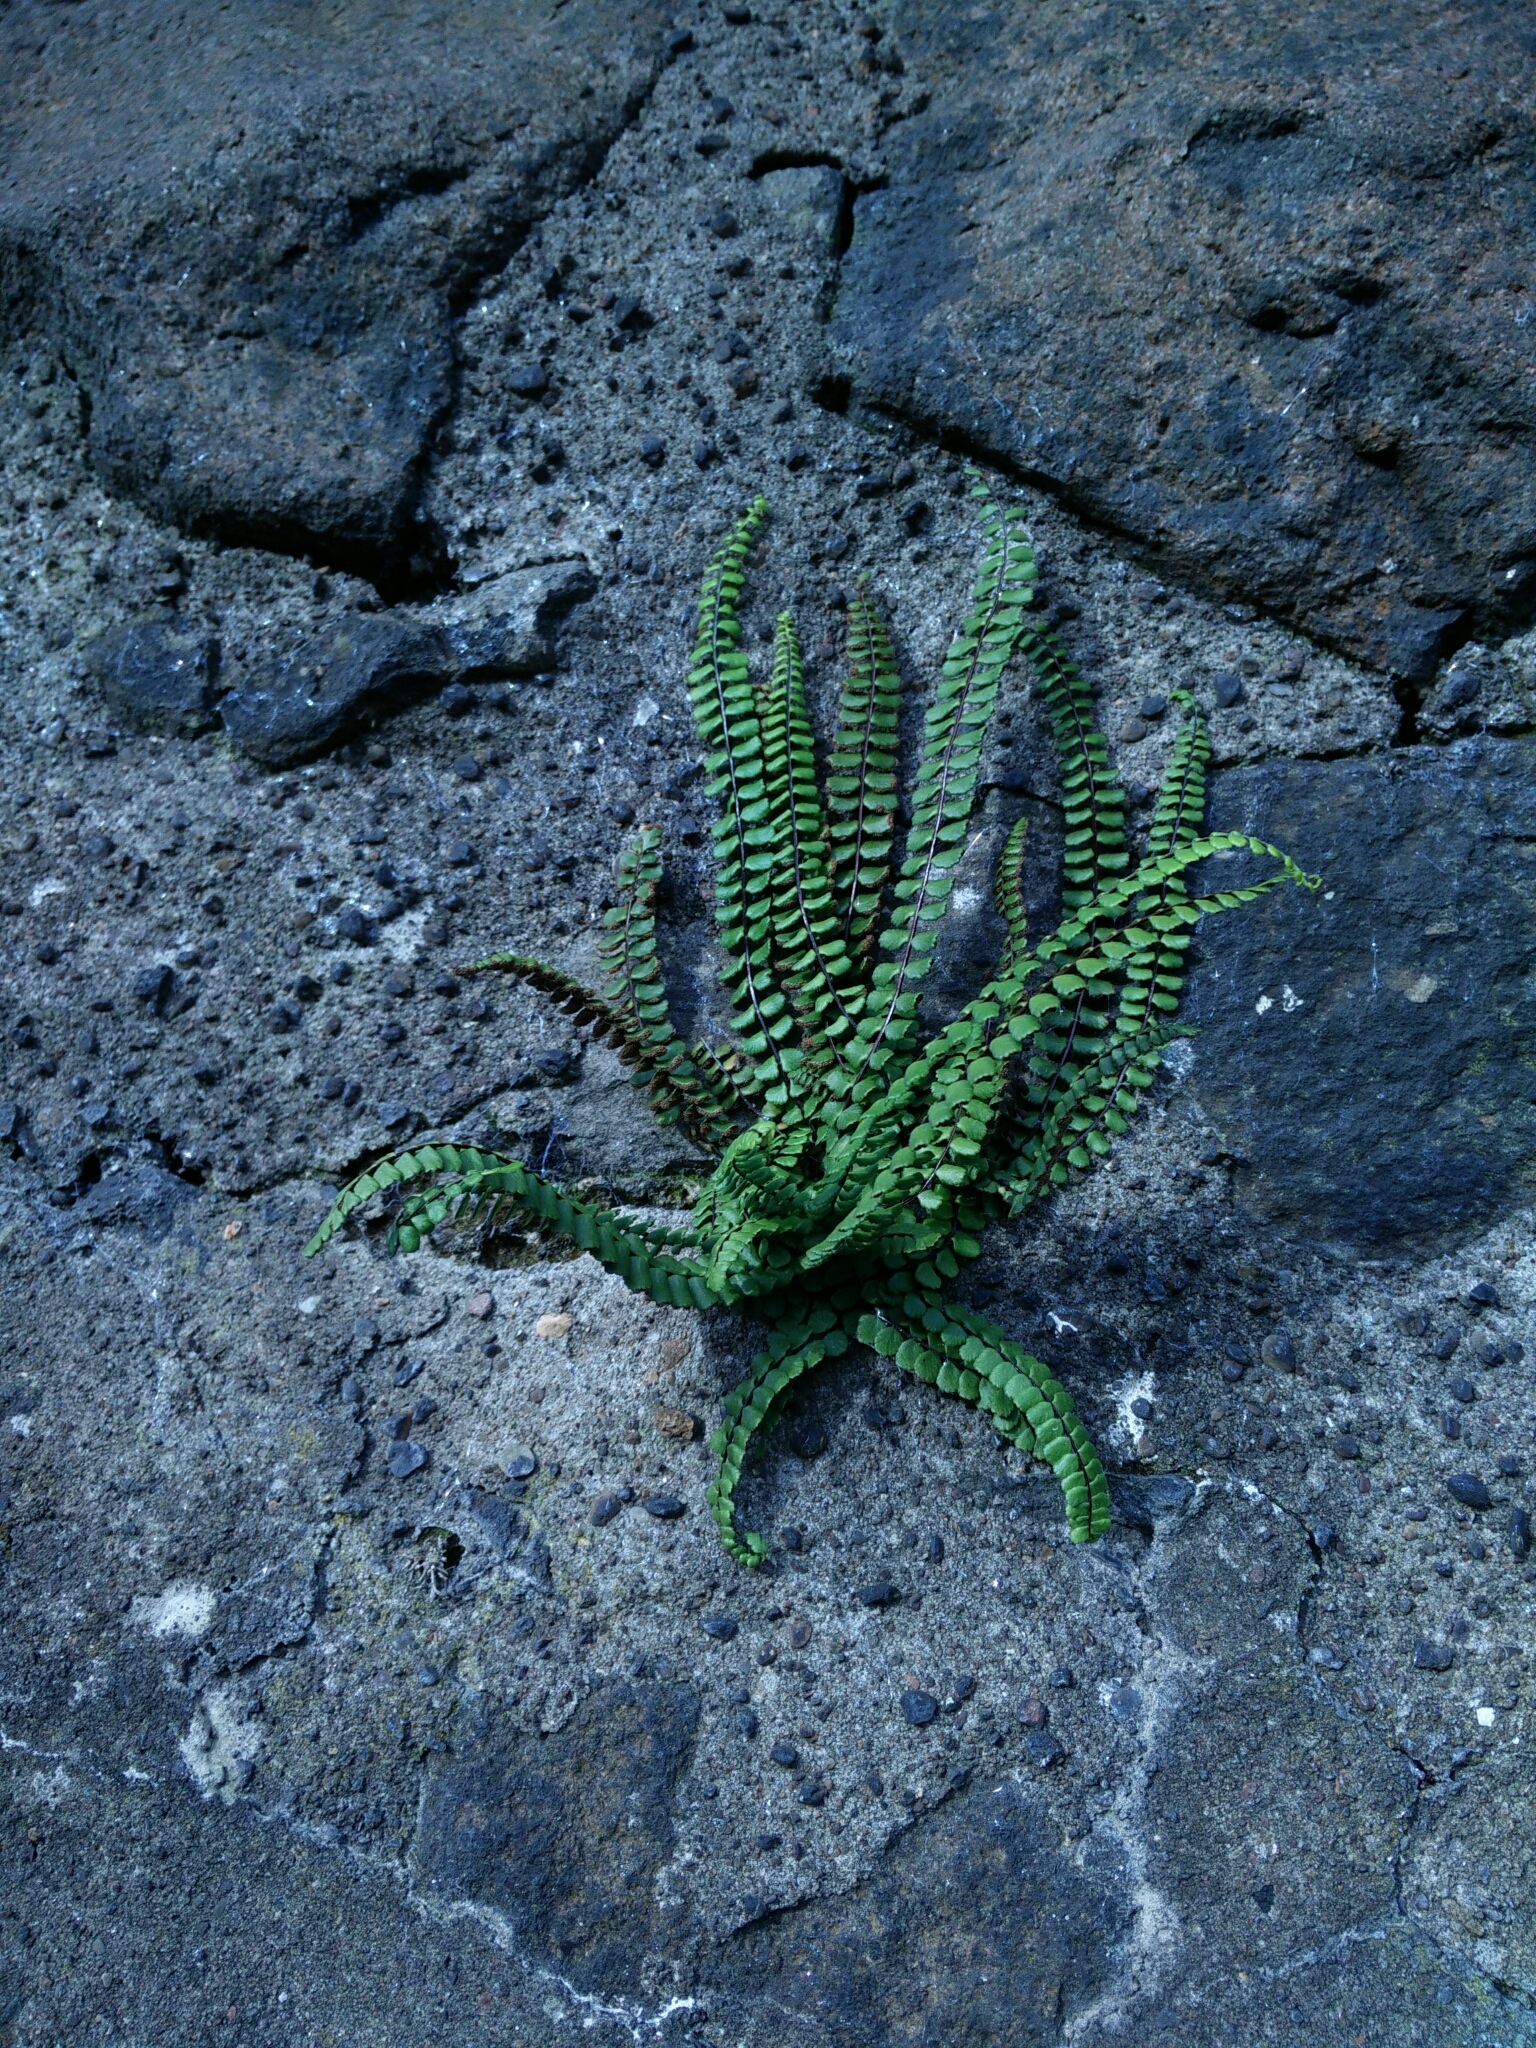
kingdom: Plantae
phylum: Tracheophyta
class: Polypodiopsida
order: Polypodiales
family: Aspleniaceae
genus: Asplenium
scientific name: Asplenium trichomanes
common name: Maidenhair spleenwort
